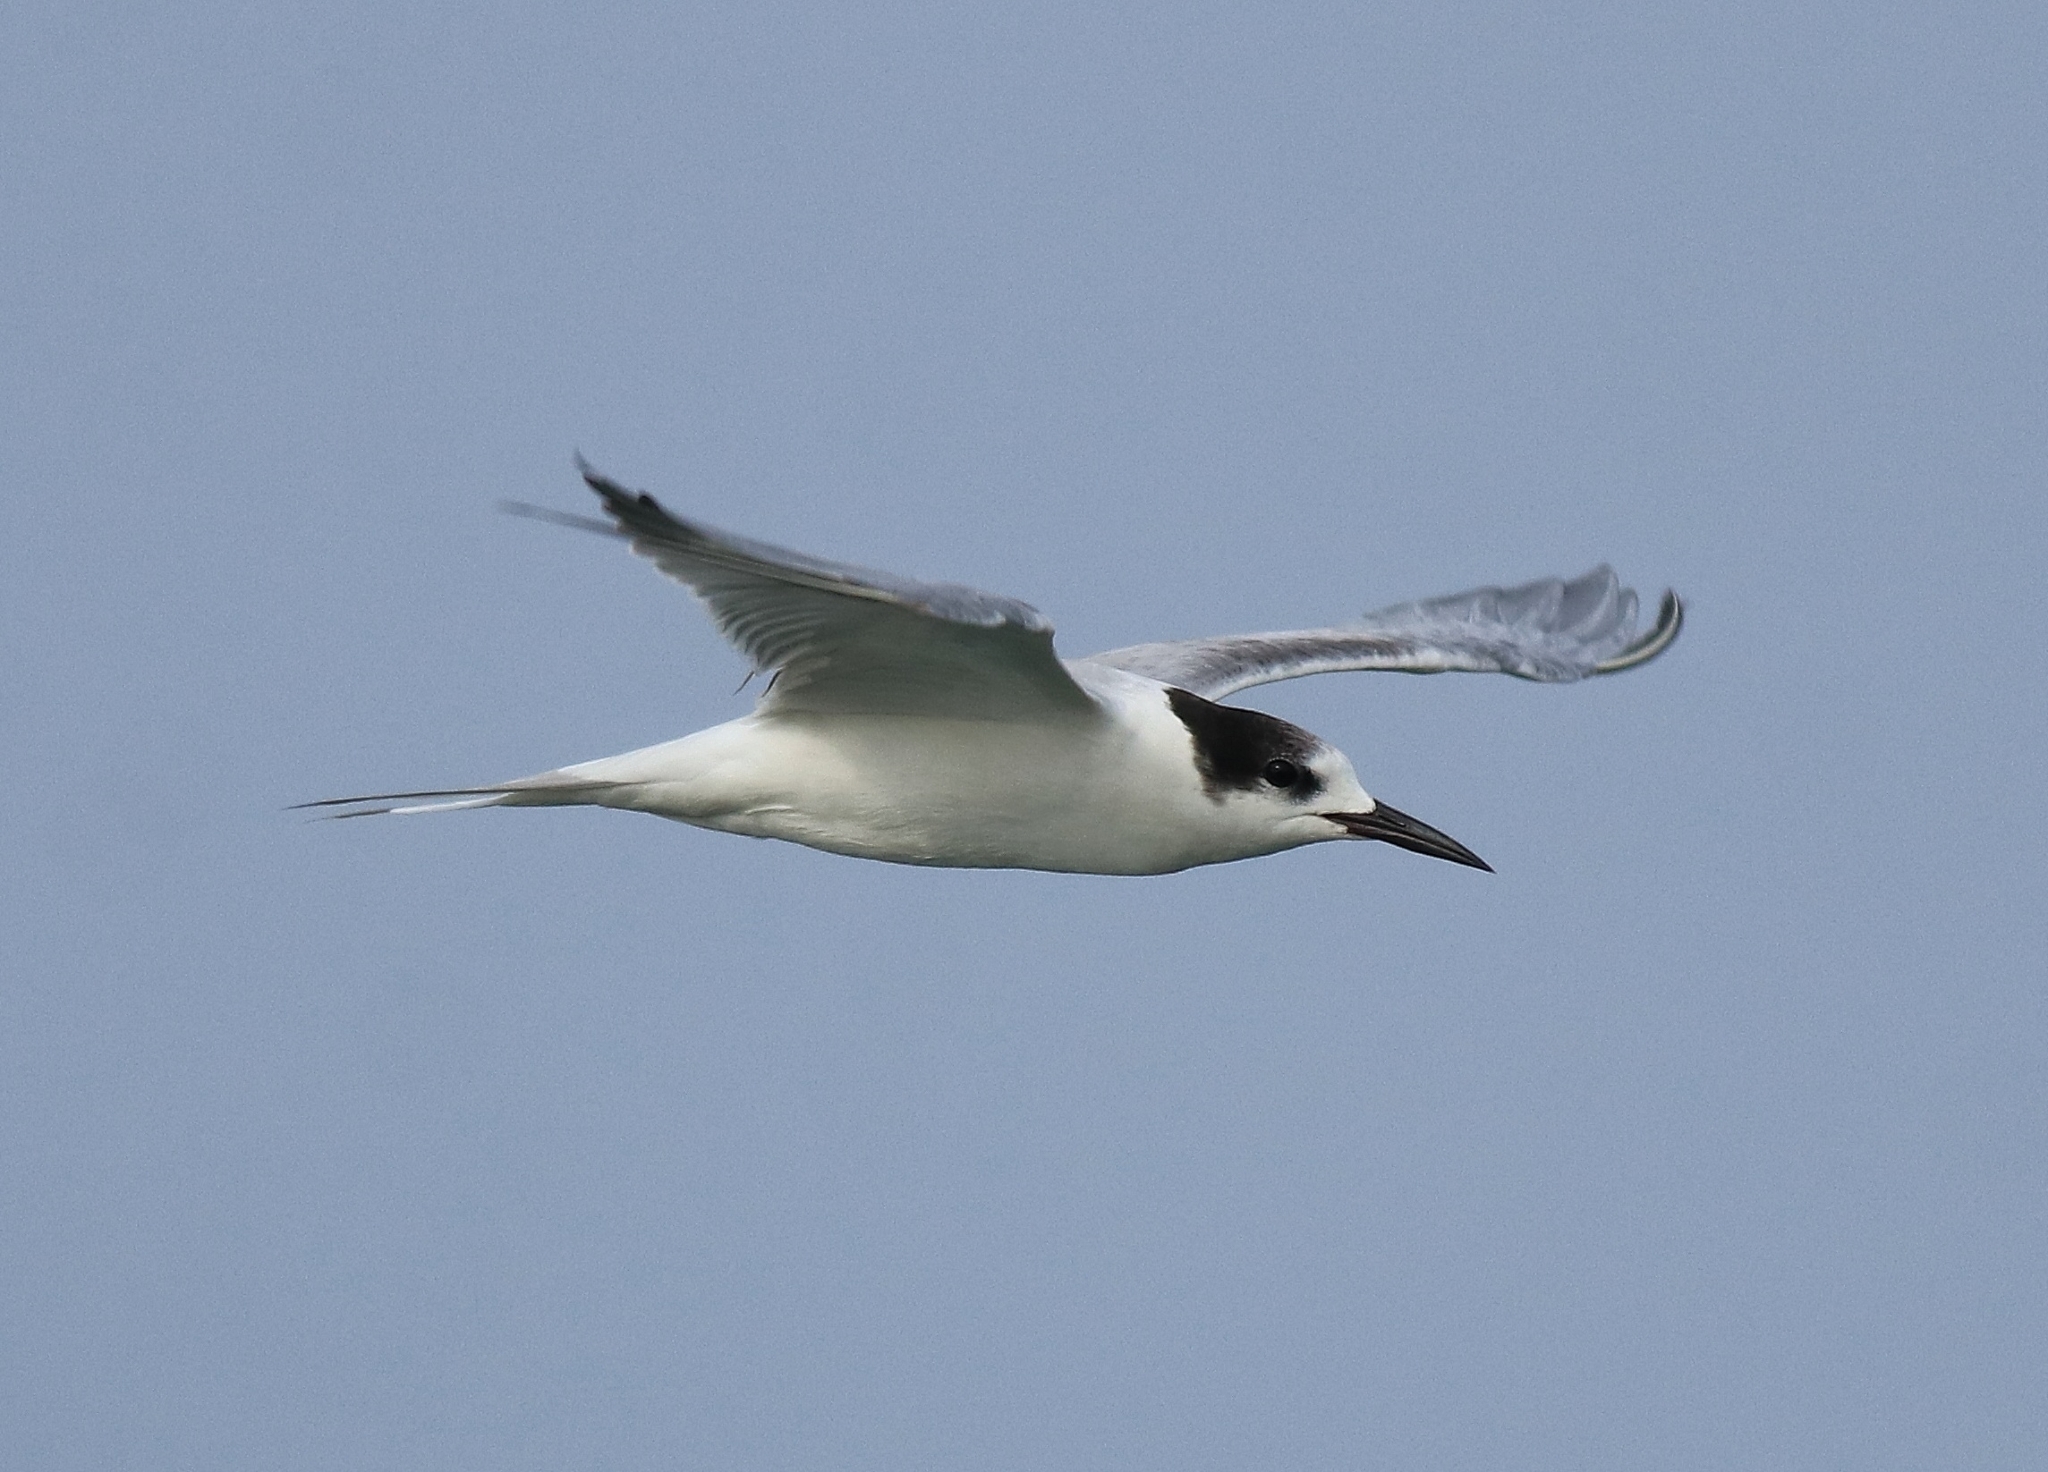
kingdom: Animalia
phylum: Chordata
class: Aves
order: Charadriiformes
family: Laridae
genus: Sterna
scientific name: Sterna hirundo
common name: Common tern
